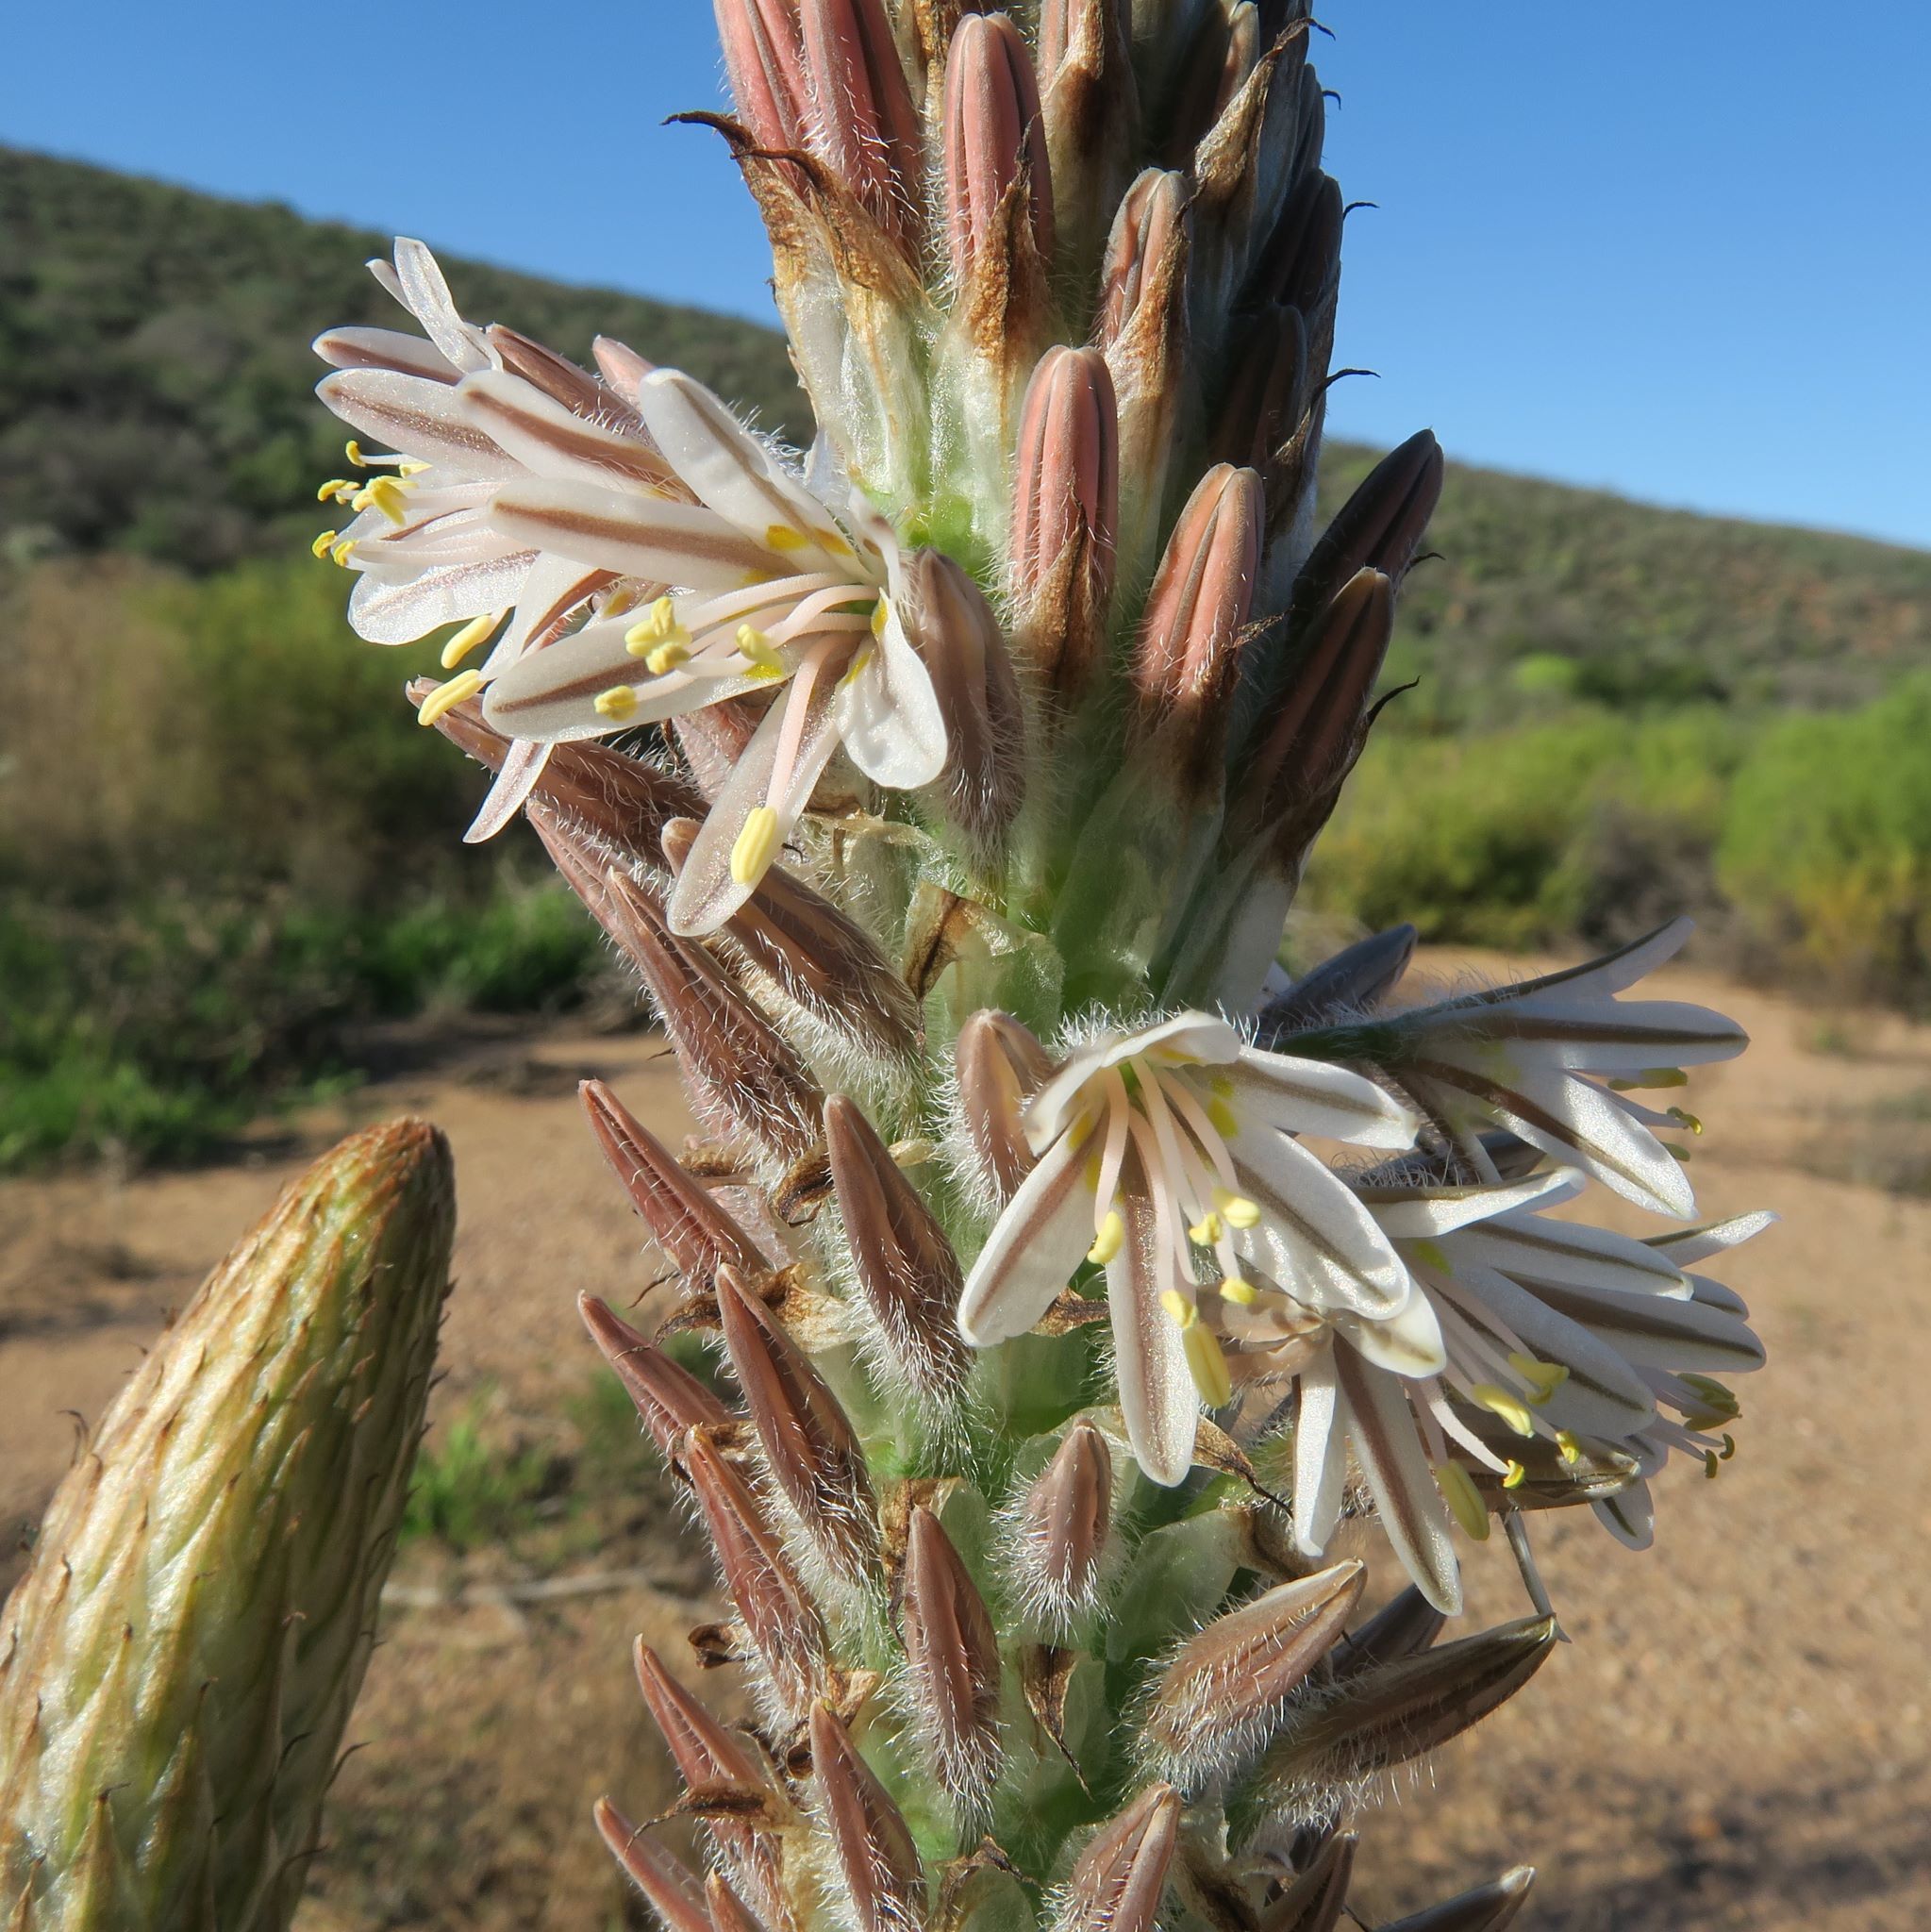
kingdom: Plantae
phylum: Tracheophyta
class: Liliopsida
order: Asparagales
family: Asphodelaceae
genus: Trachyandra
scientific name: Trachyandra falcata
